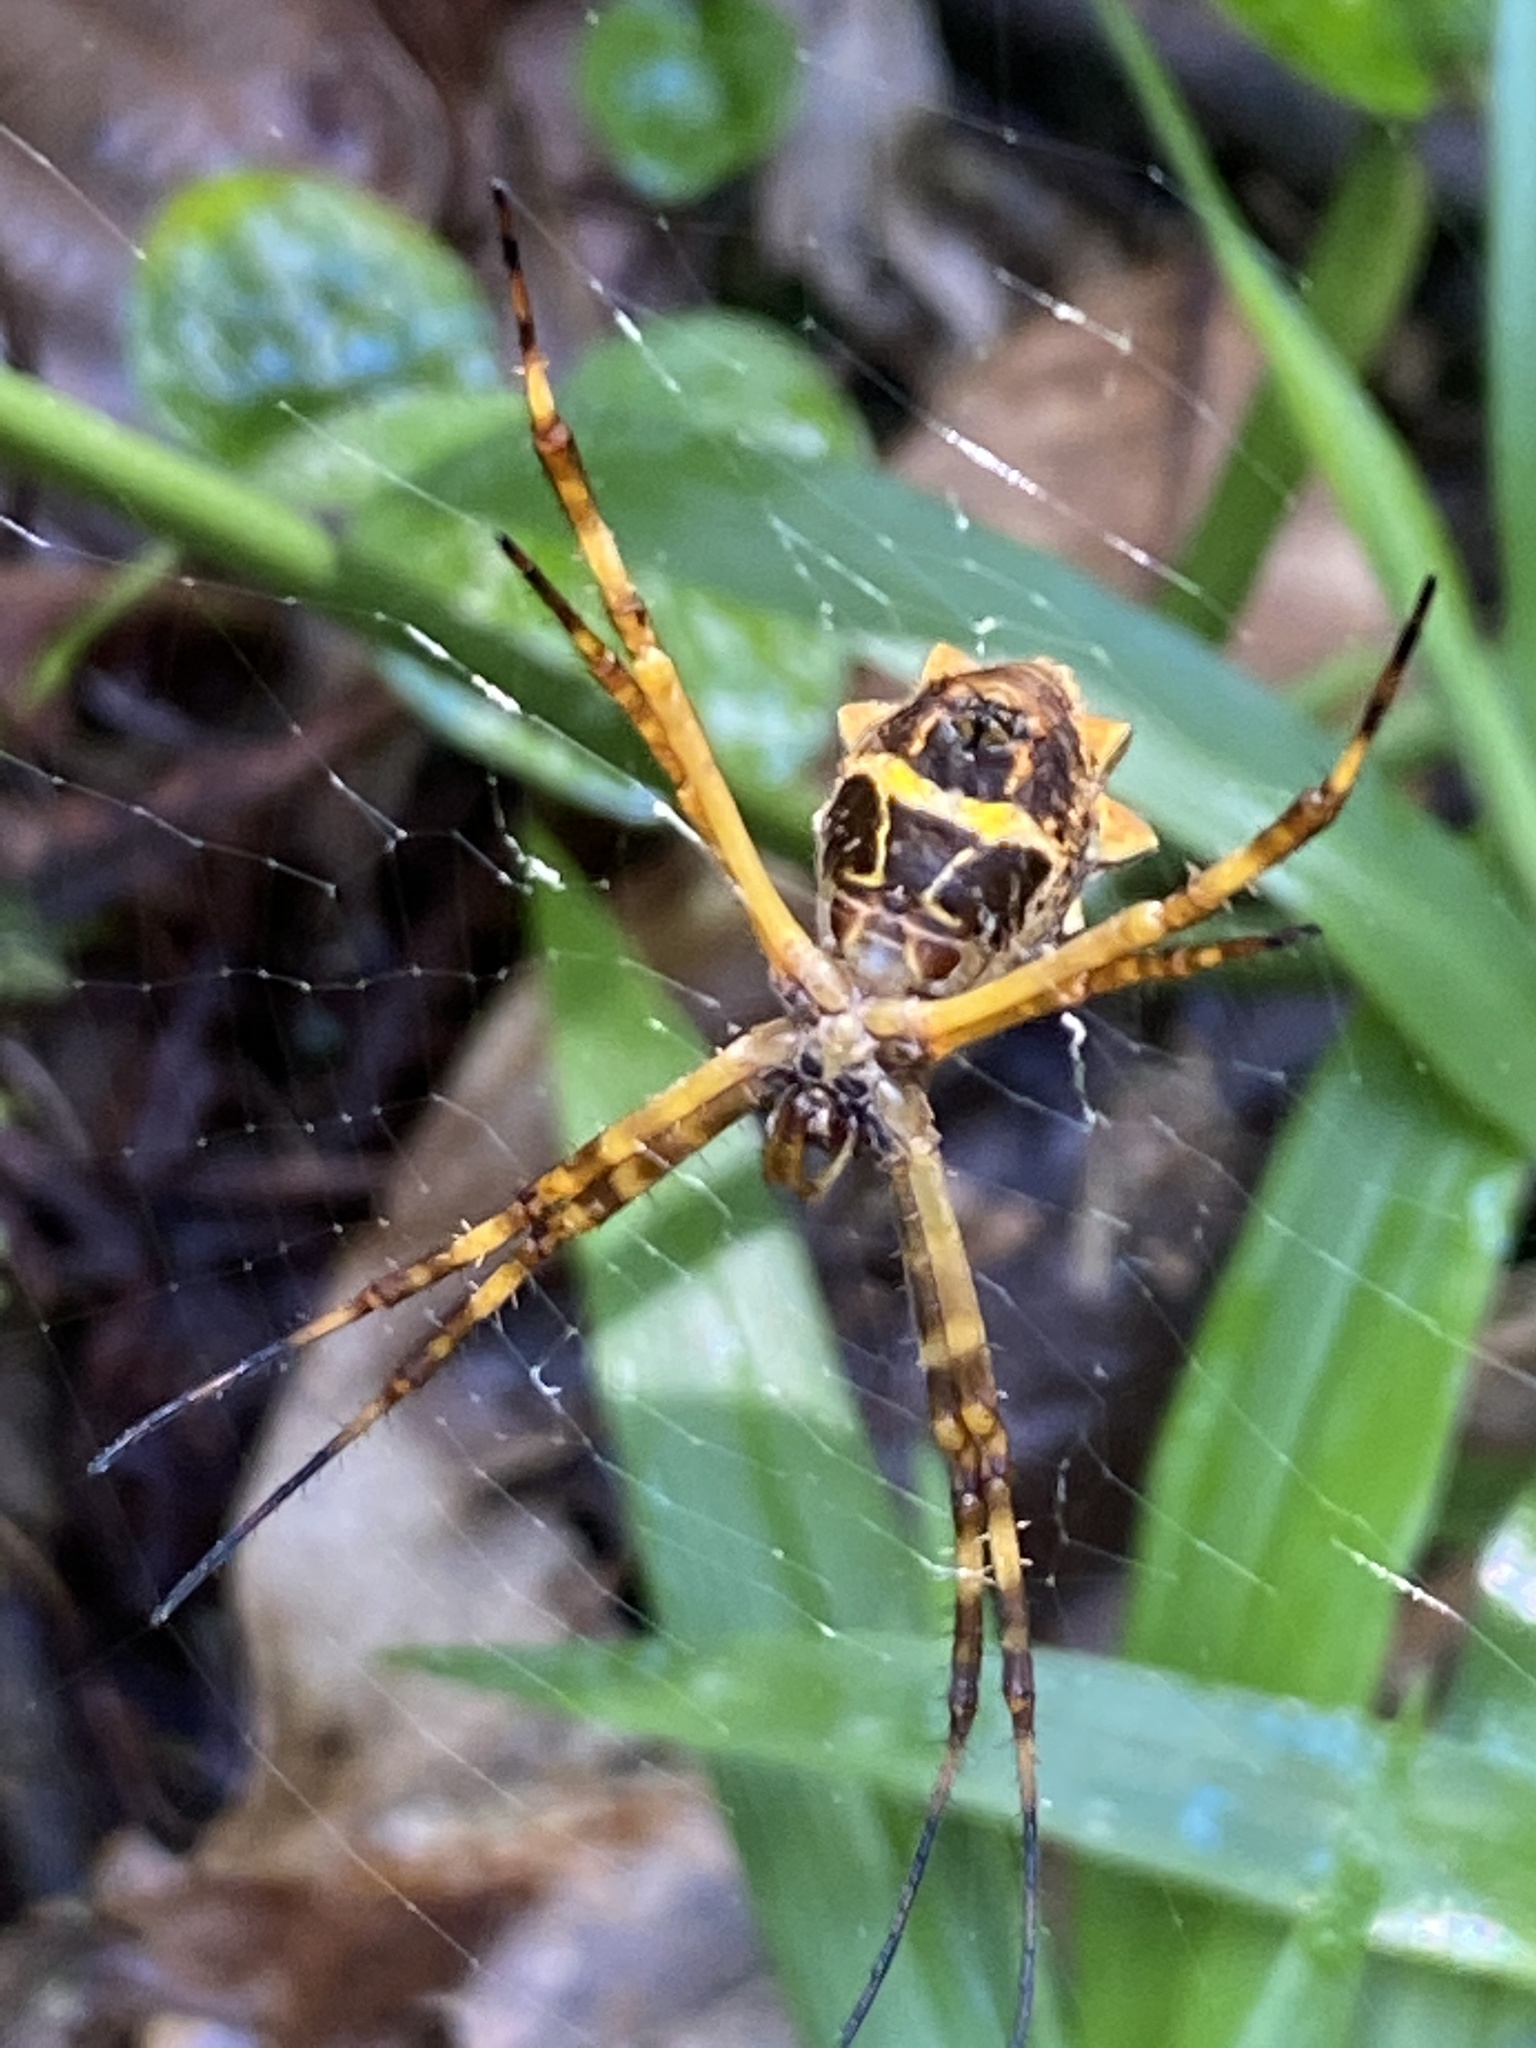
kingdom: Animalia
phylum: Arthropoda
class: Arachnida
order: Araneae
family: Araneidae
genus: Argiope
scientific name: Argiope argentata
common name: Orb weavers
